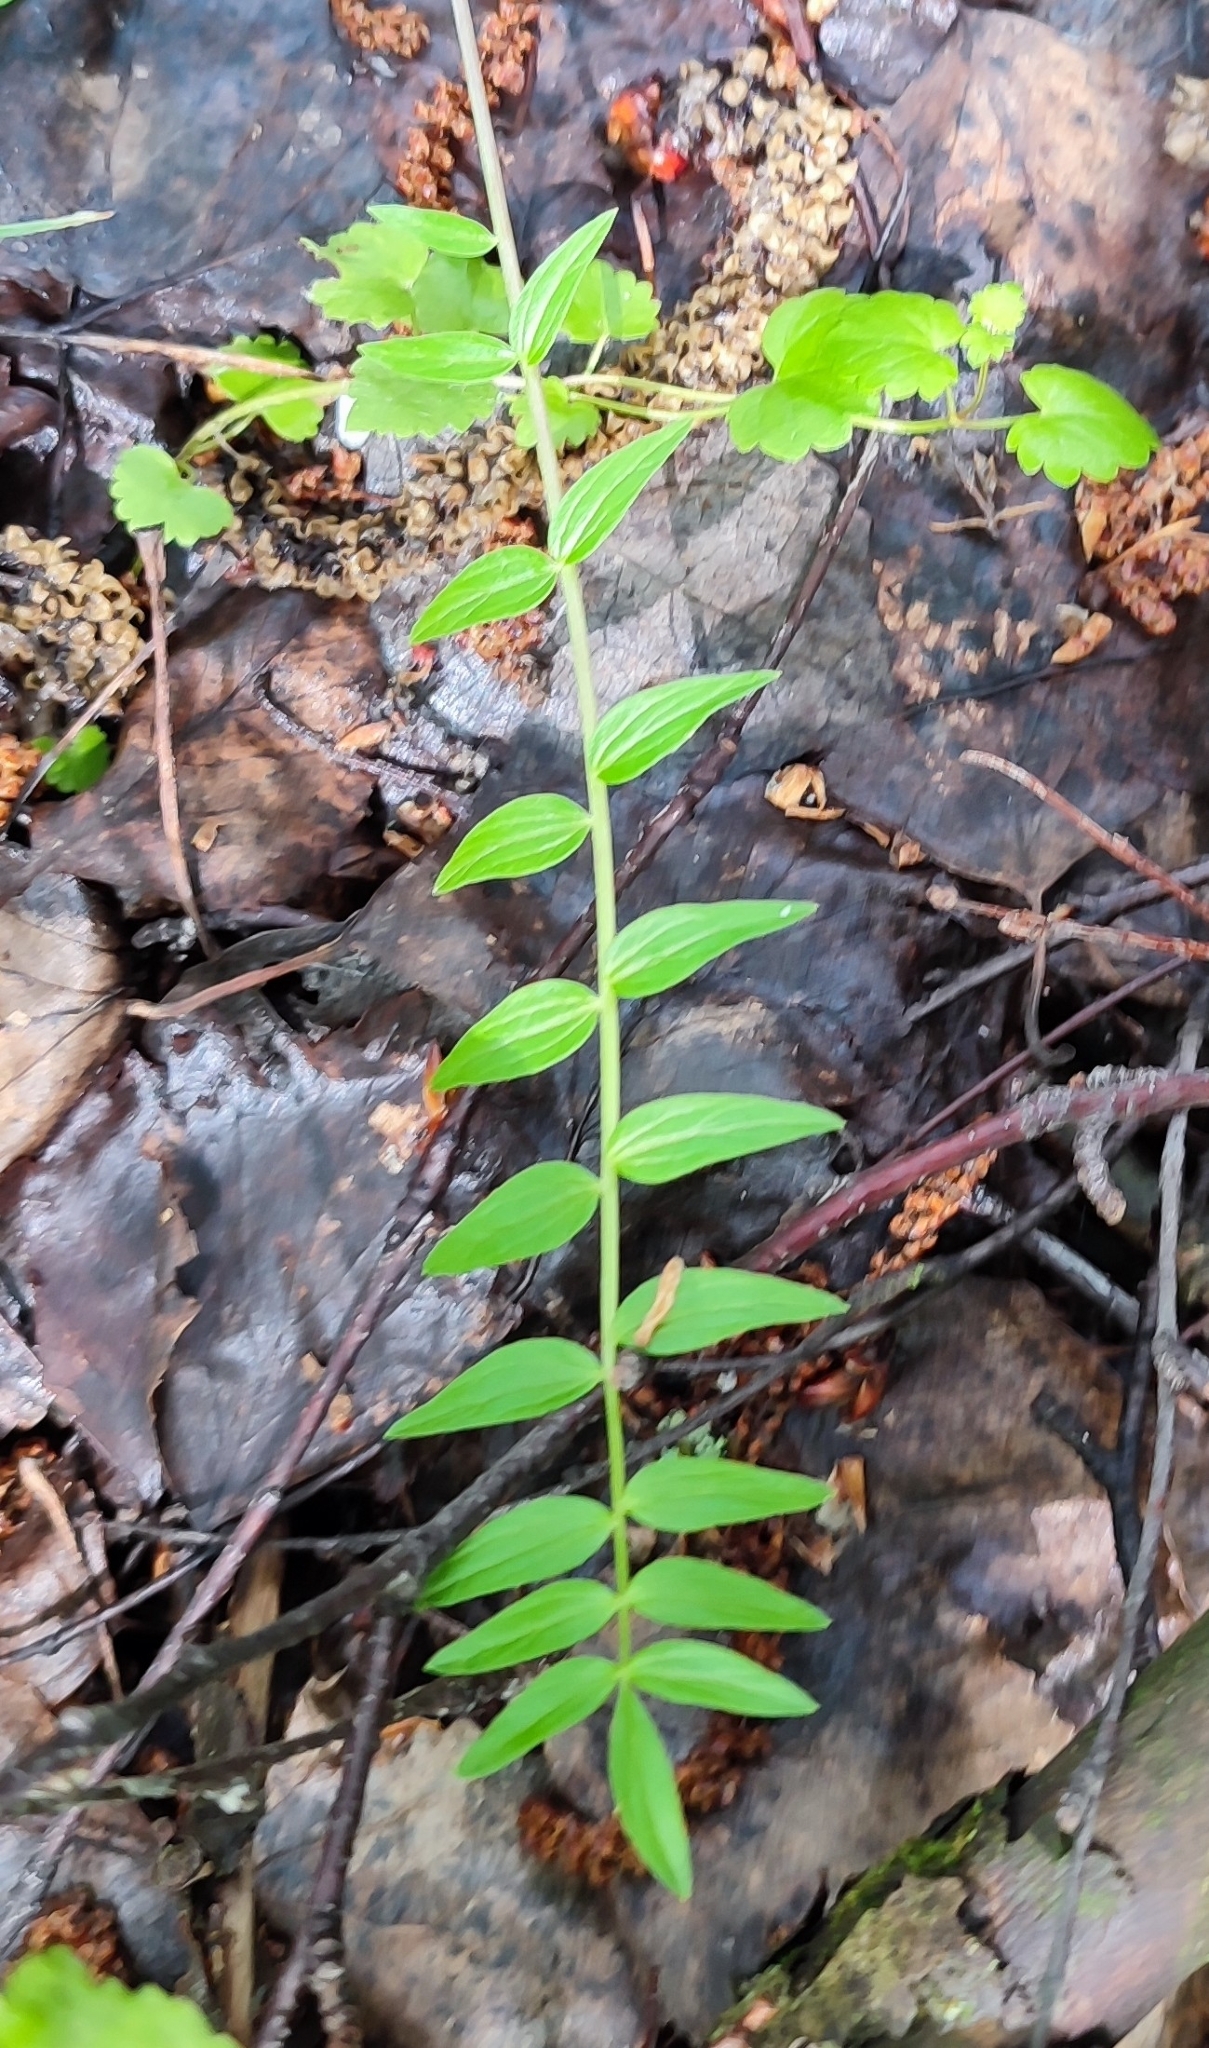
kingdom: Plantae
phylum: Tracheophyta
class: Magnoliopsida
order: Ericales
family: Polemoniaceae
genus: Polemonium
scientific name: Polemonium caeruleum
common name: Jacob's-ladder
